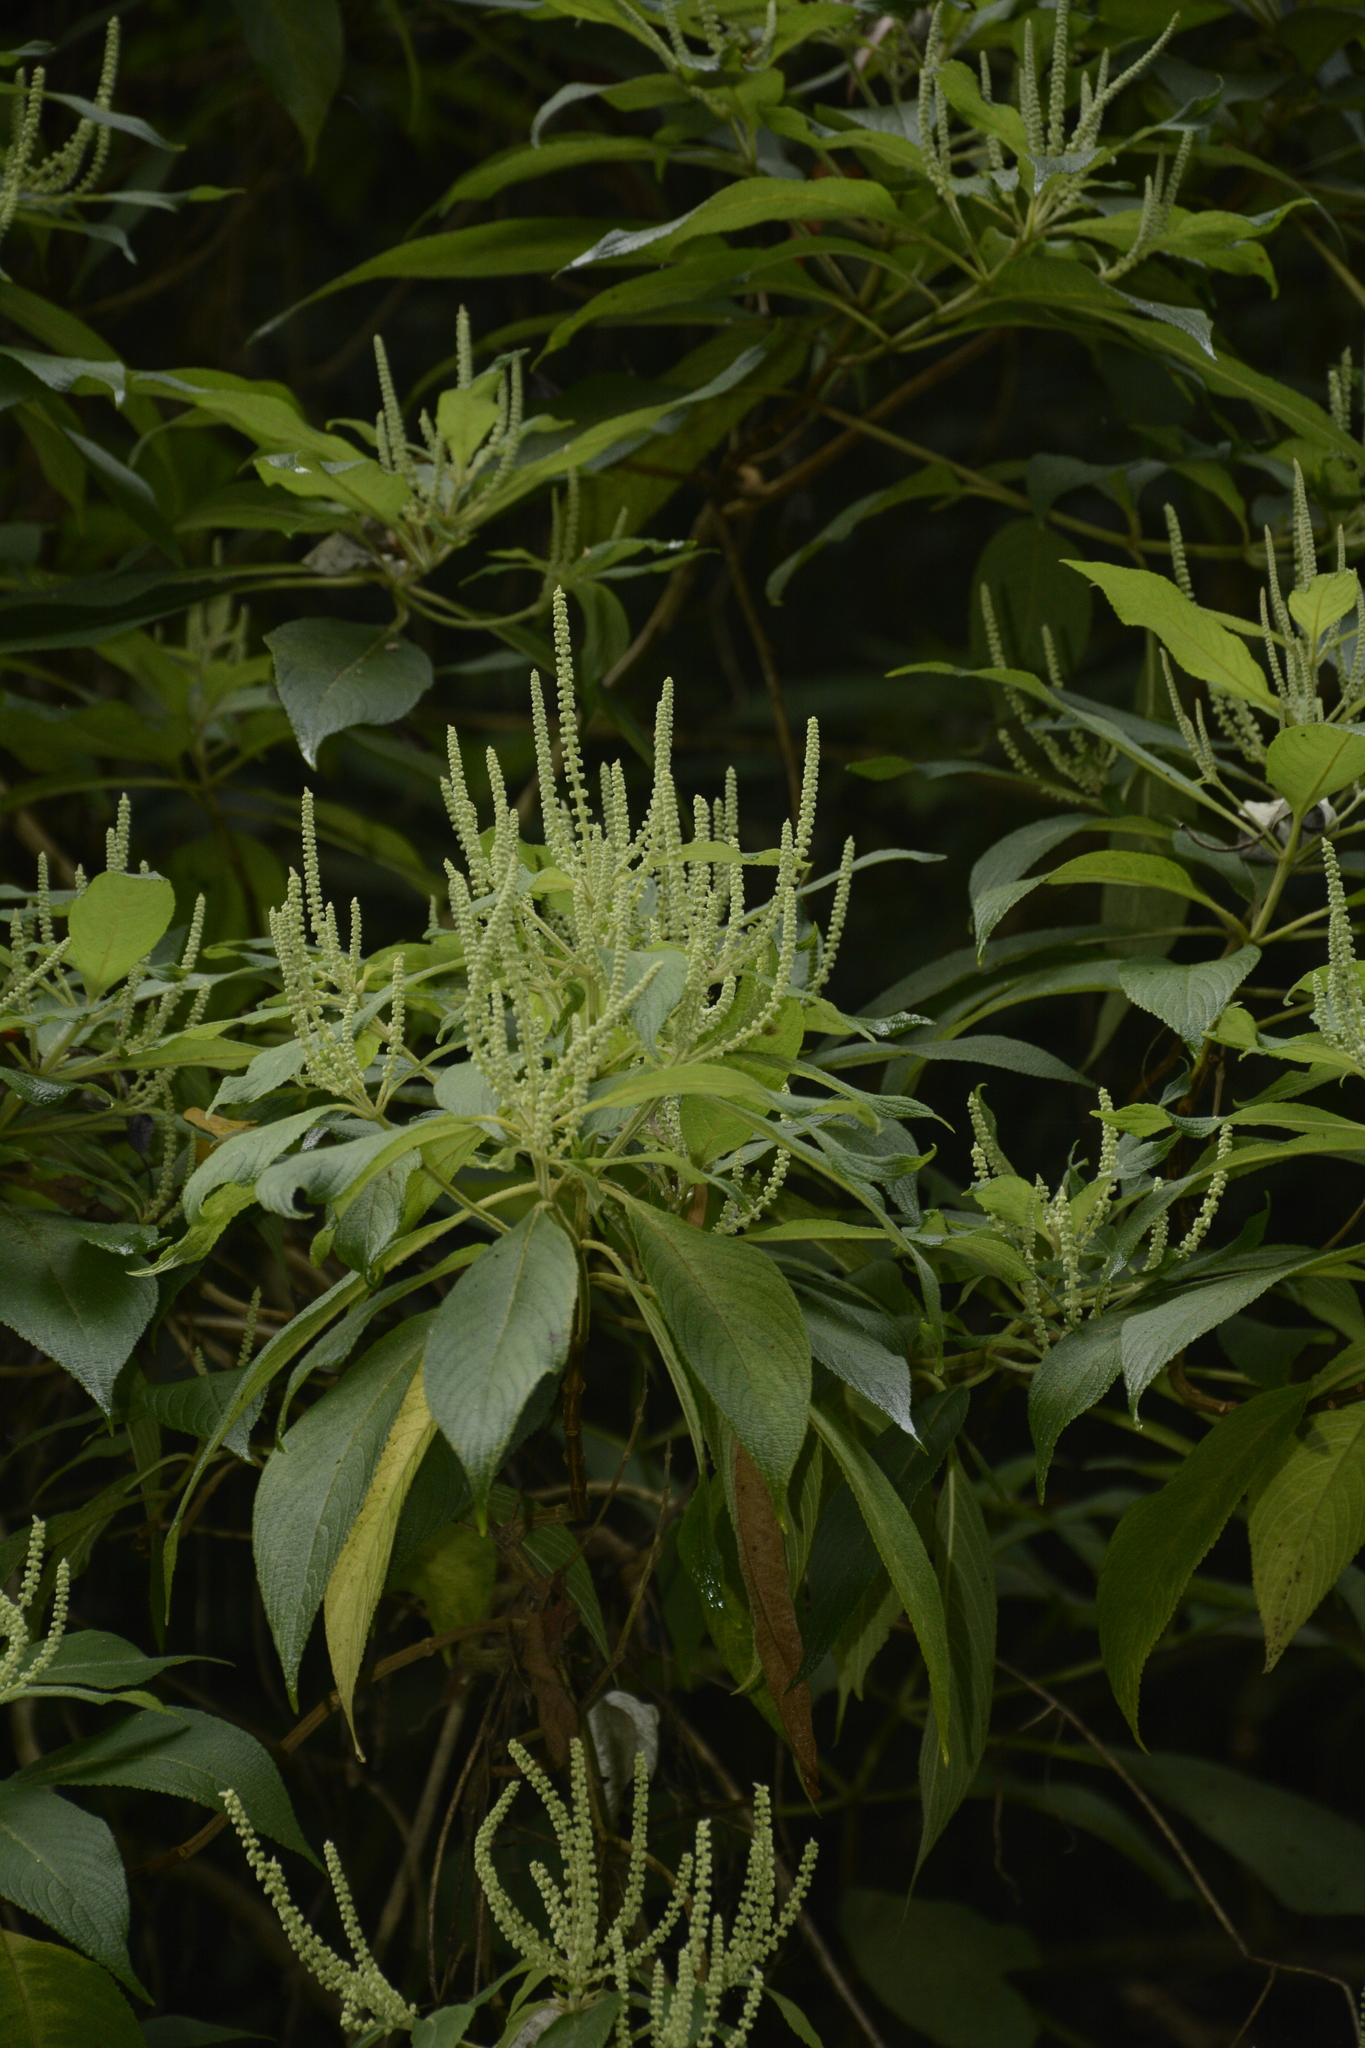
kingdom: Plantae
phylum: Tracheophyta
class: Magnoliopsida
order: Lamiales
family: Lamiaceae
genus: Colebrookea
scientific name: Colebrookea oppositifolia
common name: Indian squirrel tail
